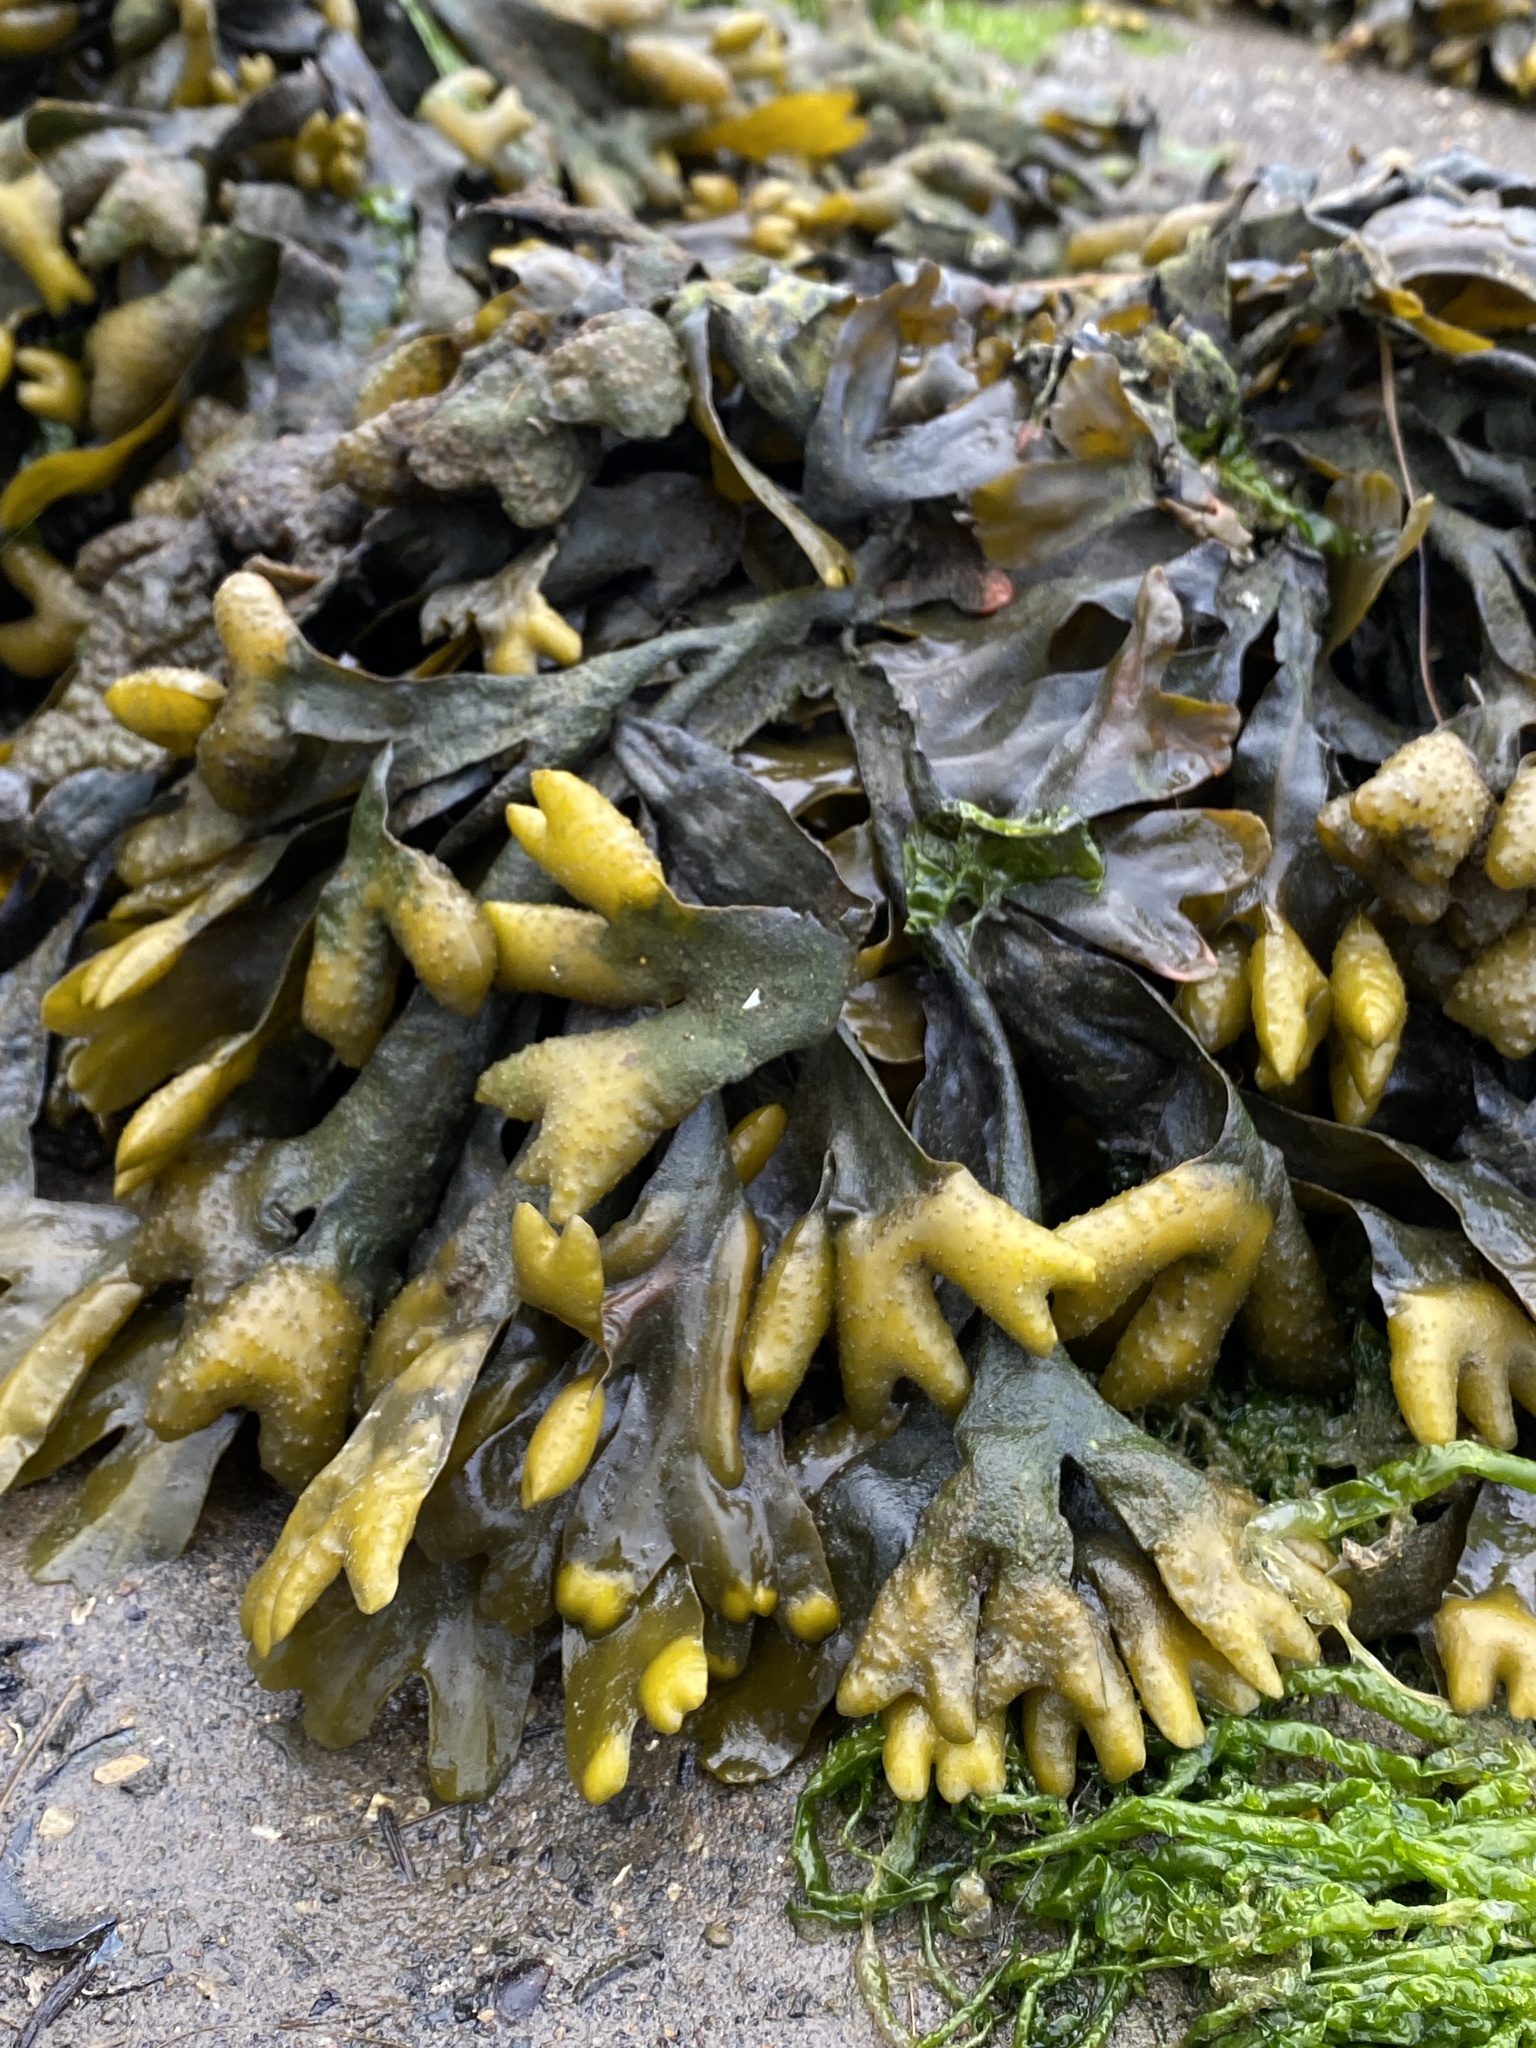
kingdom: Chromista
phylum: Ochrophyta
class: Phaeophyceae
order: Fucales
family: Fucaceae
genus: Fucus
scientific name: Fucus distichus
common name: Rockweed
